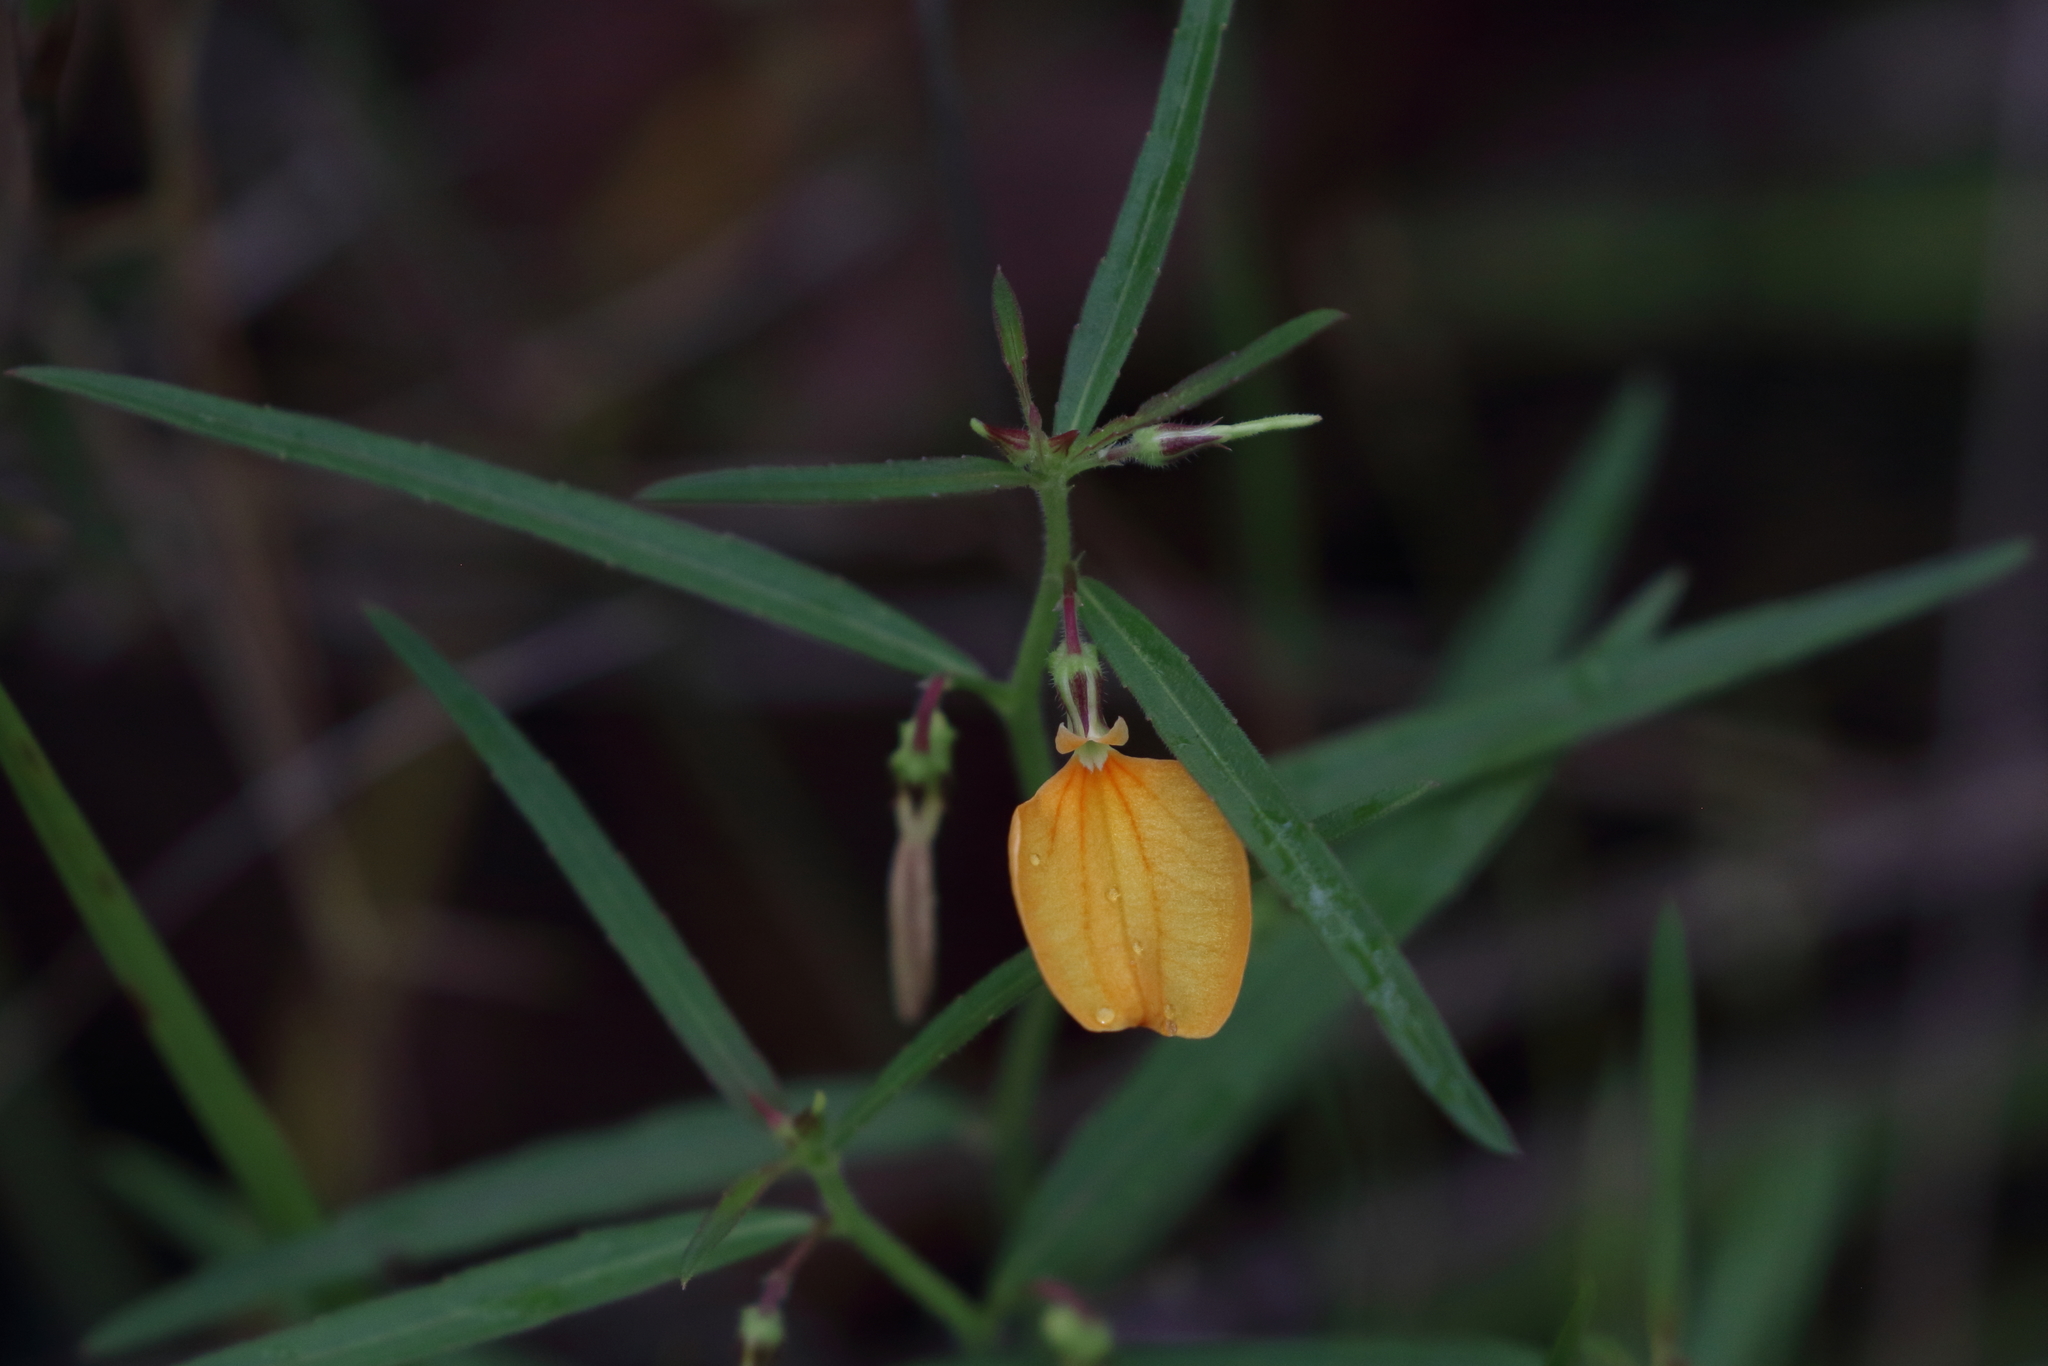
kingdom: Plantae
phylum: Tracheophyta
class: Magnoliopsida
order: Malpighiales
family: Violaceae
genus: Pigea
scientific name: Pigea stellarioides
